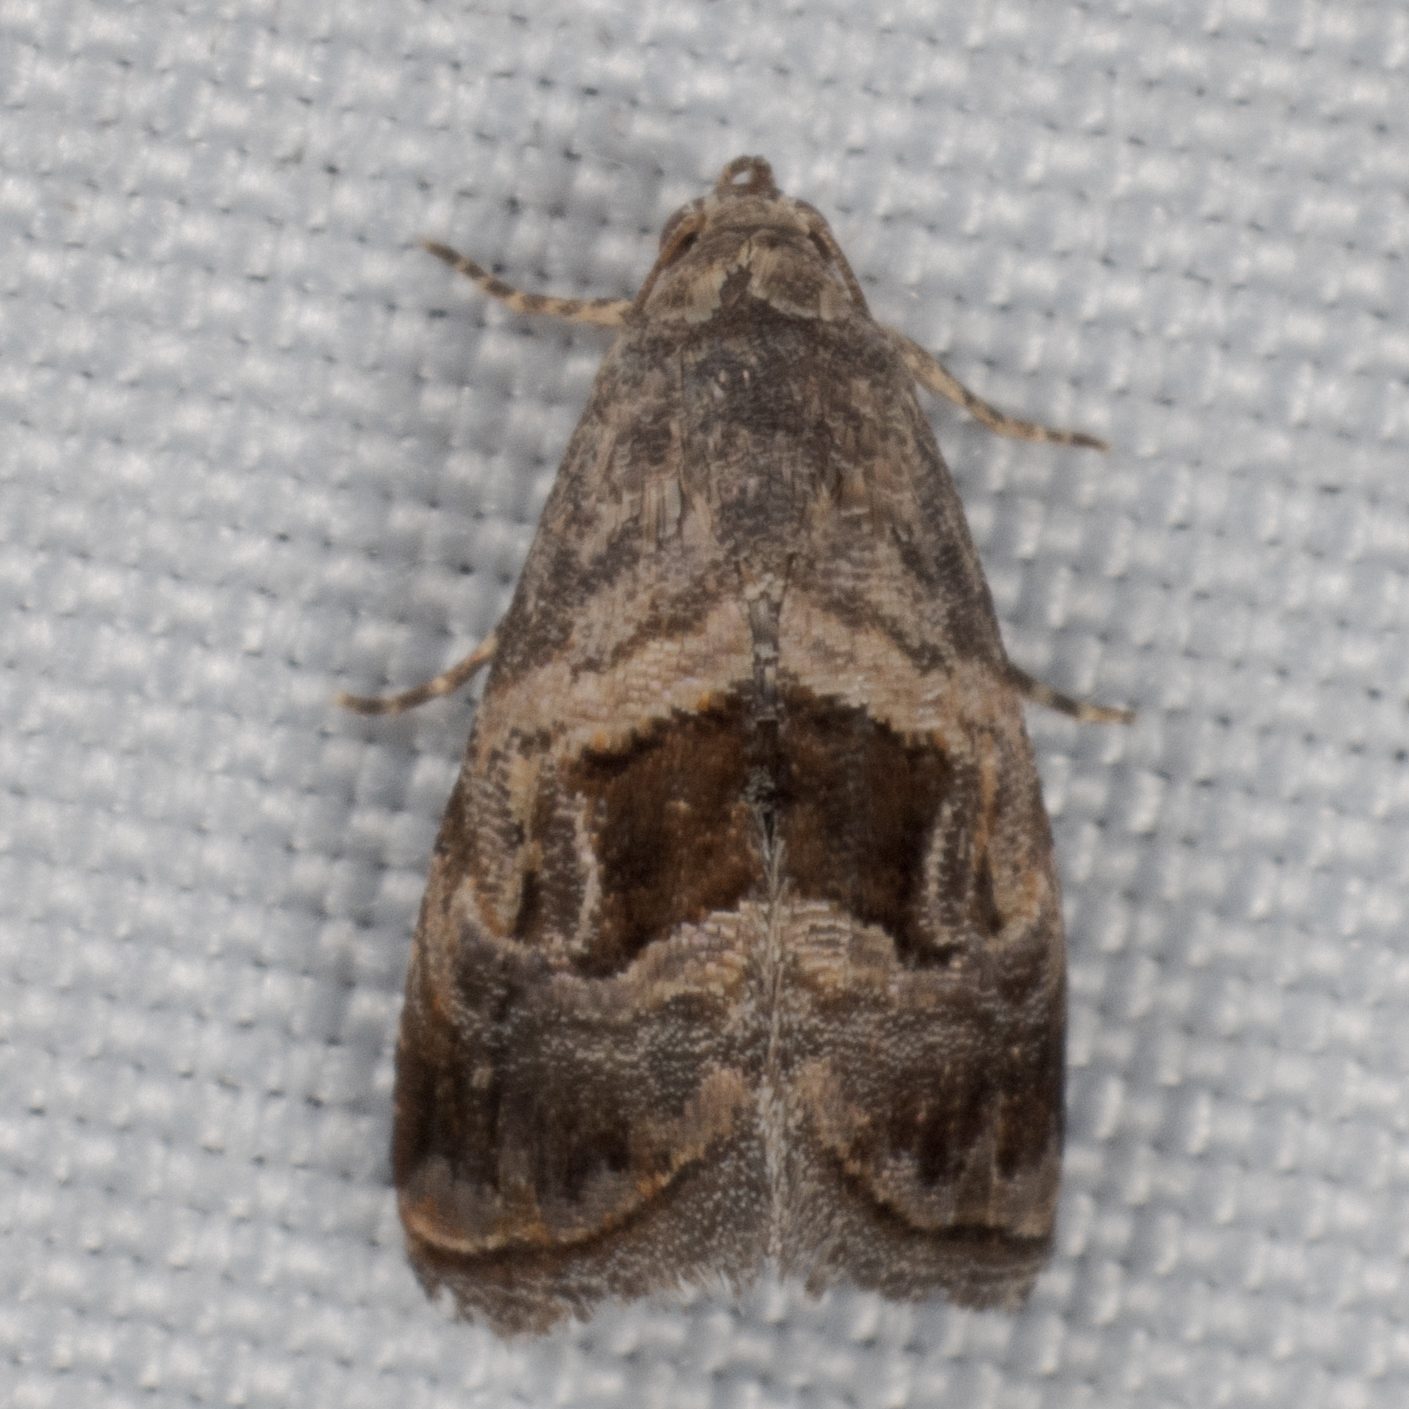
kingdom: Animalia
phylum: Arthropoda
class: Insecta
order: Lepidoptera
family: Noctuidae
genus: Tripudia
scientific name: Tripudia quadrifera
